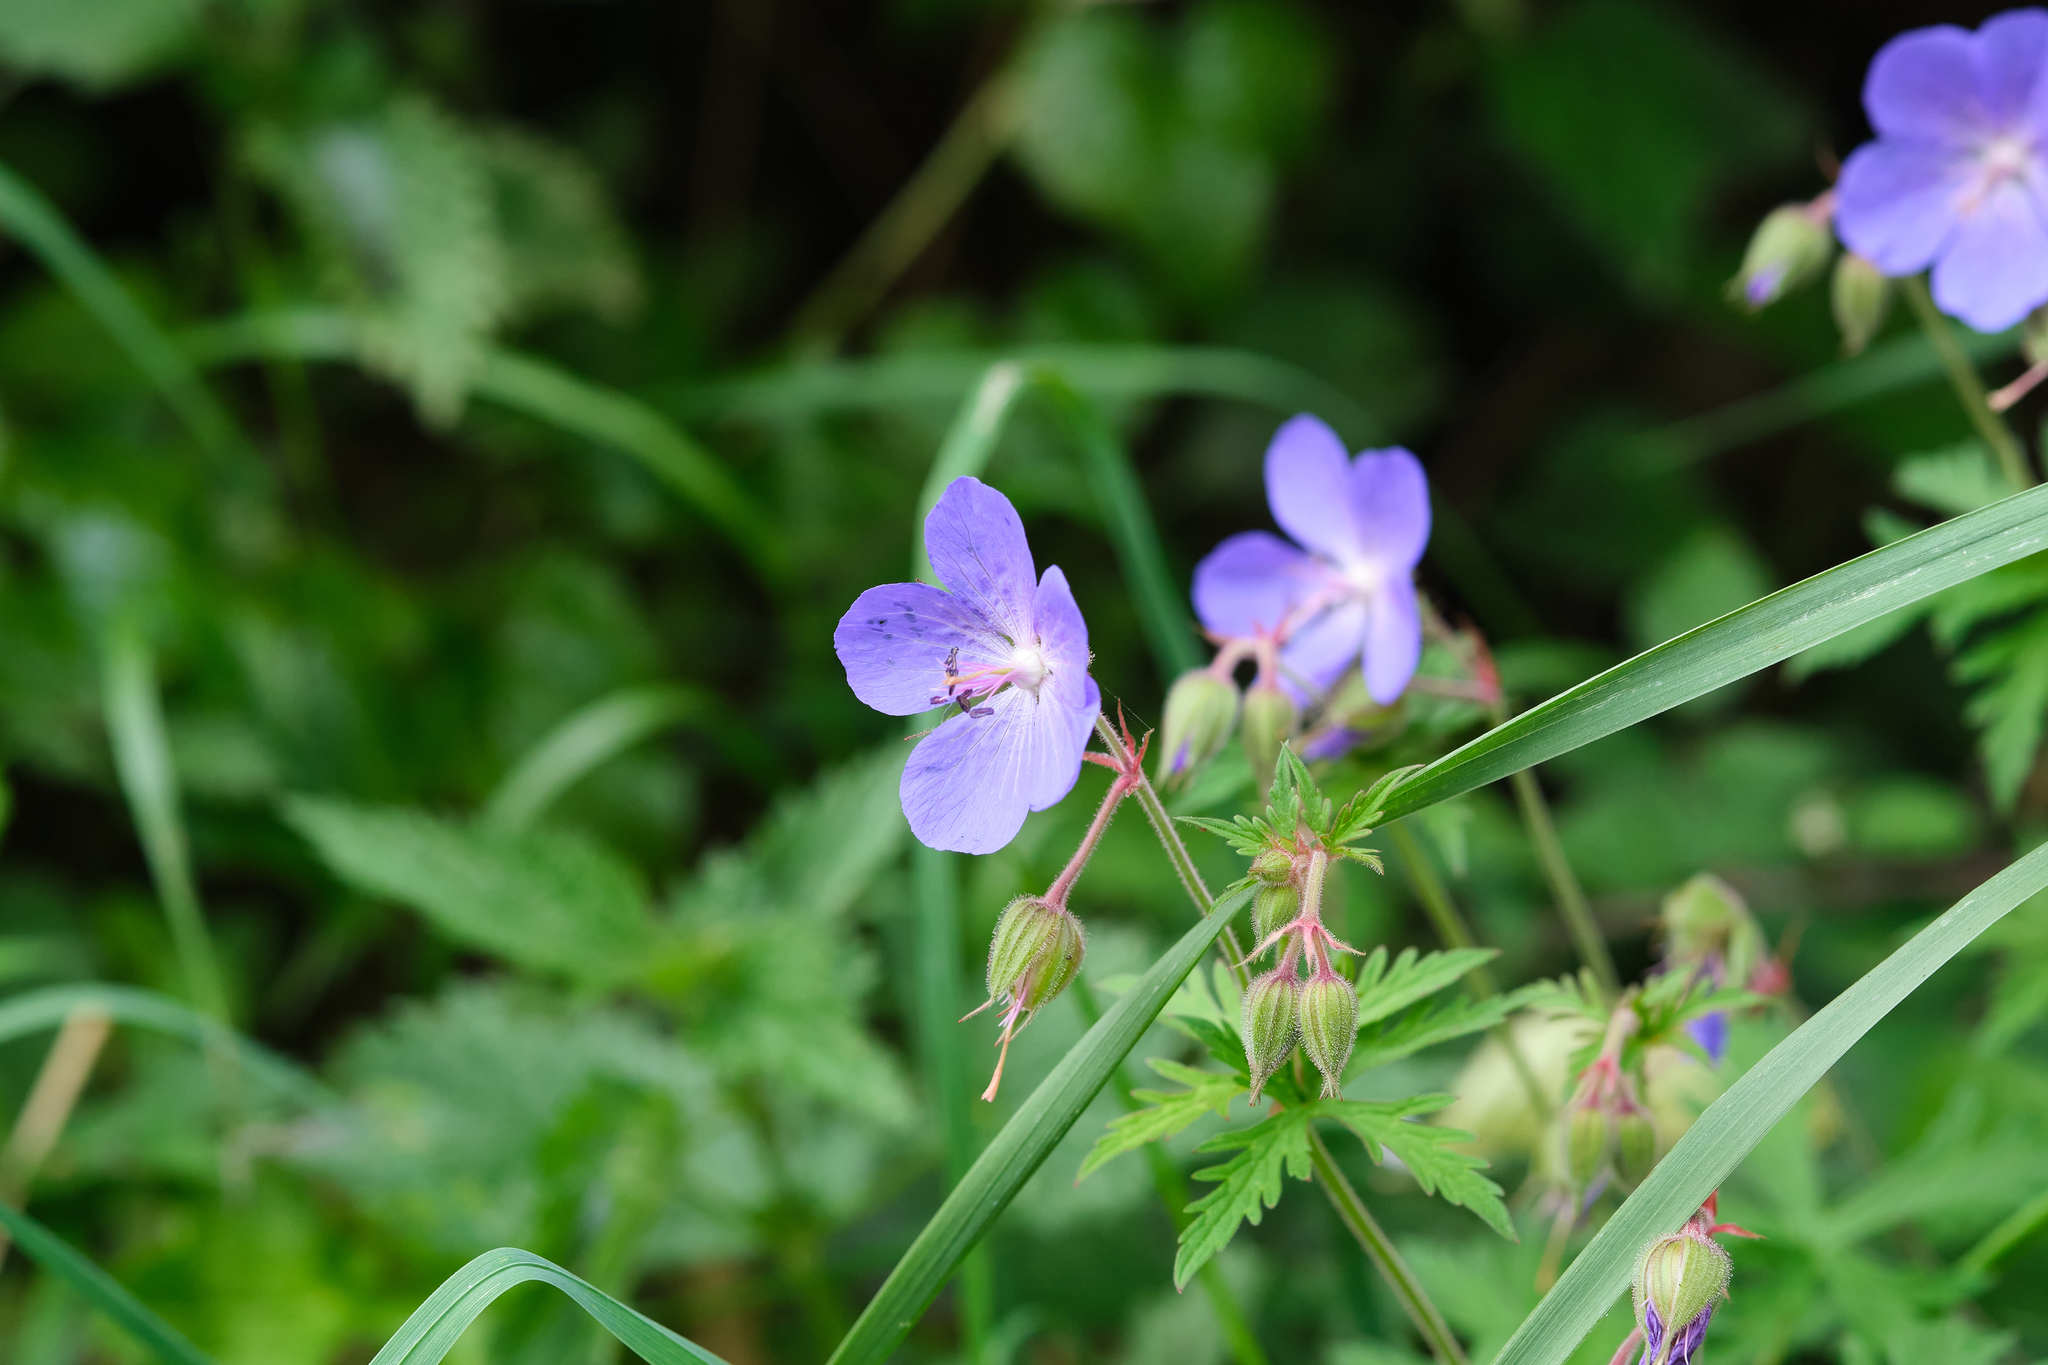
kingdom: Plantae
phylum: Tracheophyta
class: Magnoliopsida
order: Geraniales
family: Geraniaceae
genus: Geranium
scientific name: Geranium pratense
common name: Meadow crane's-bill
